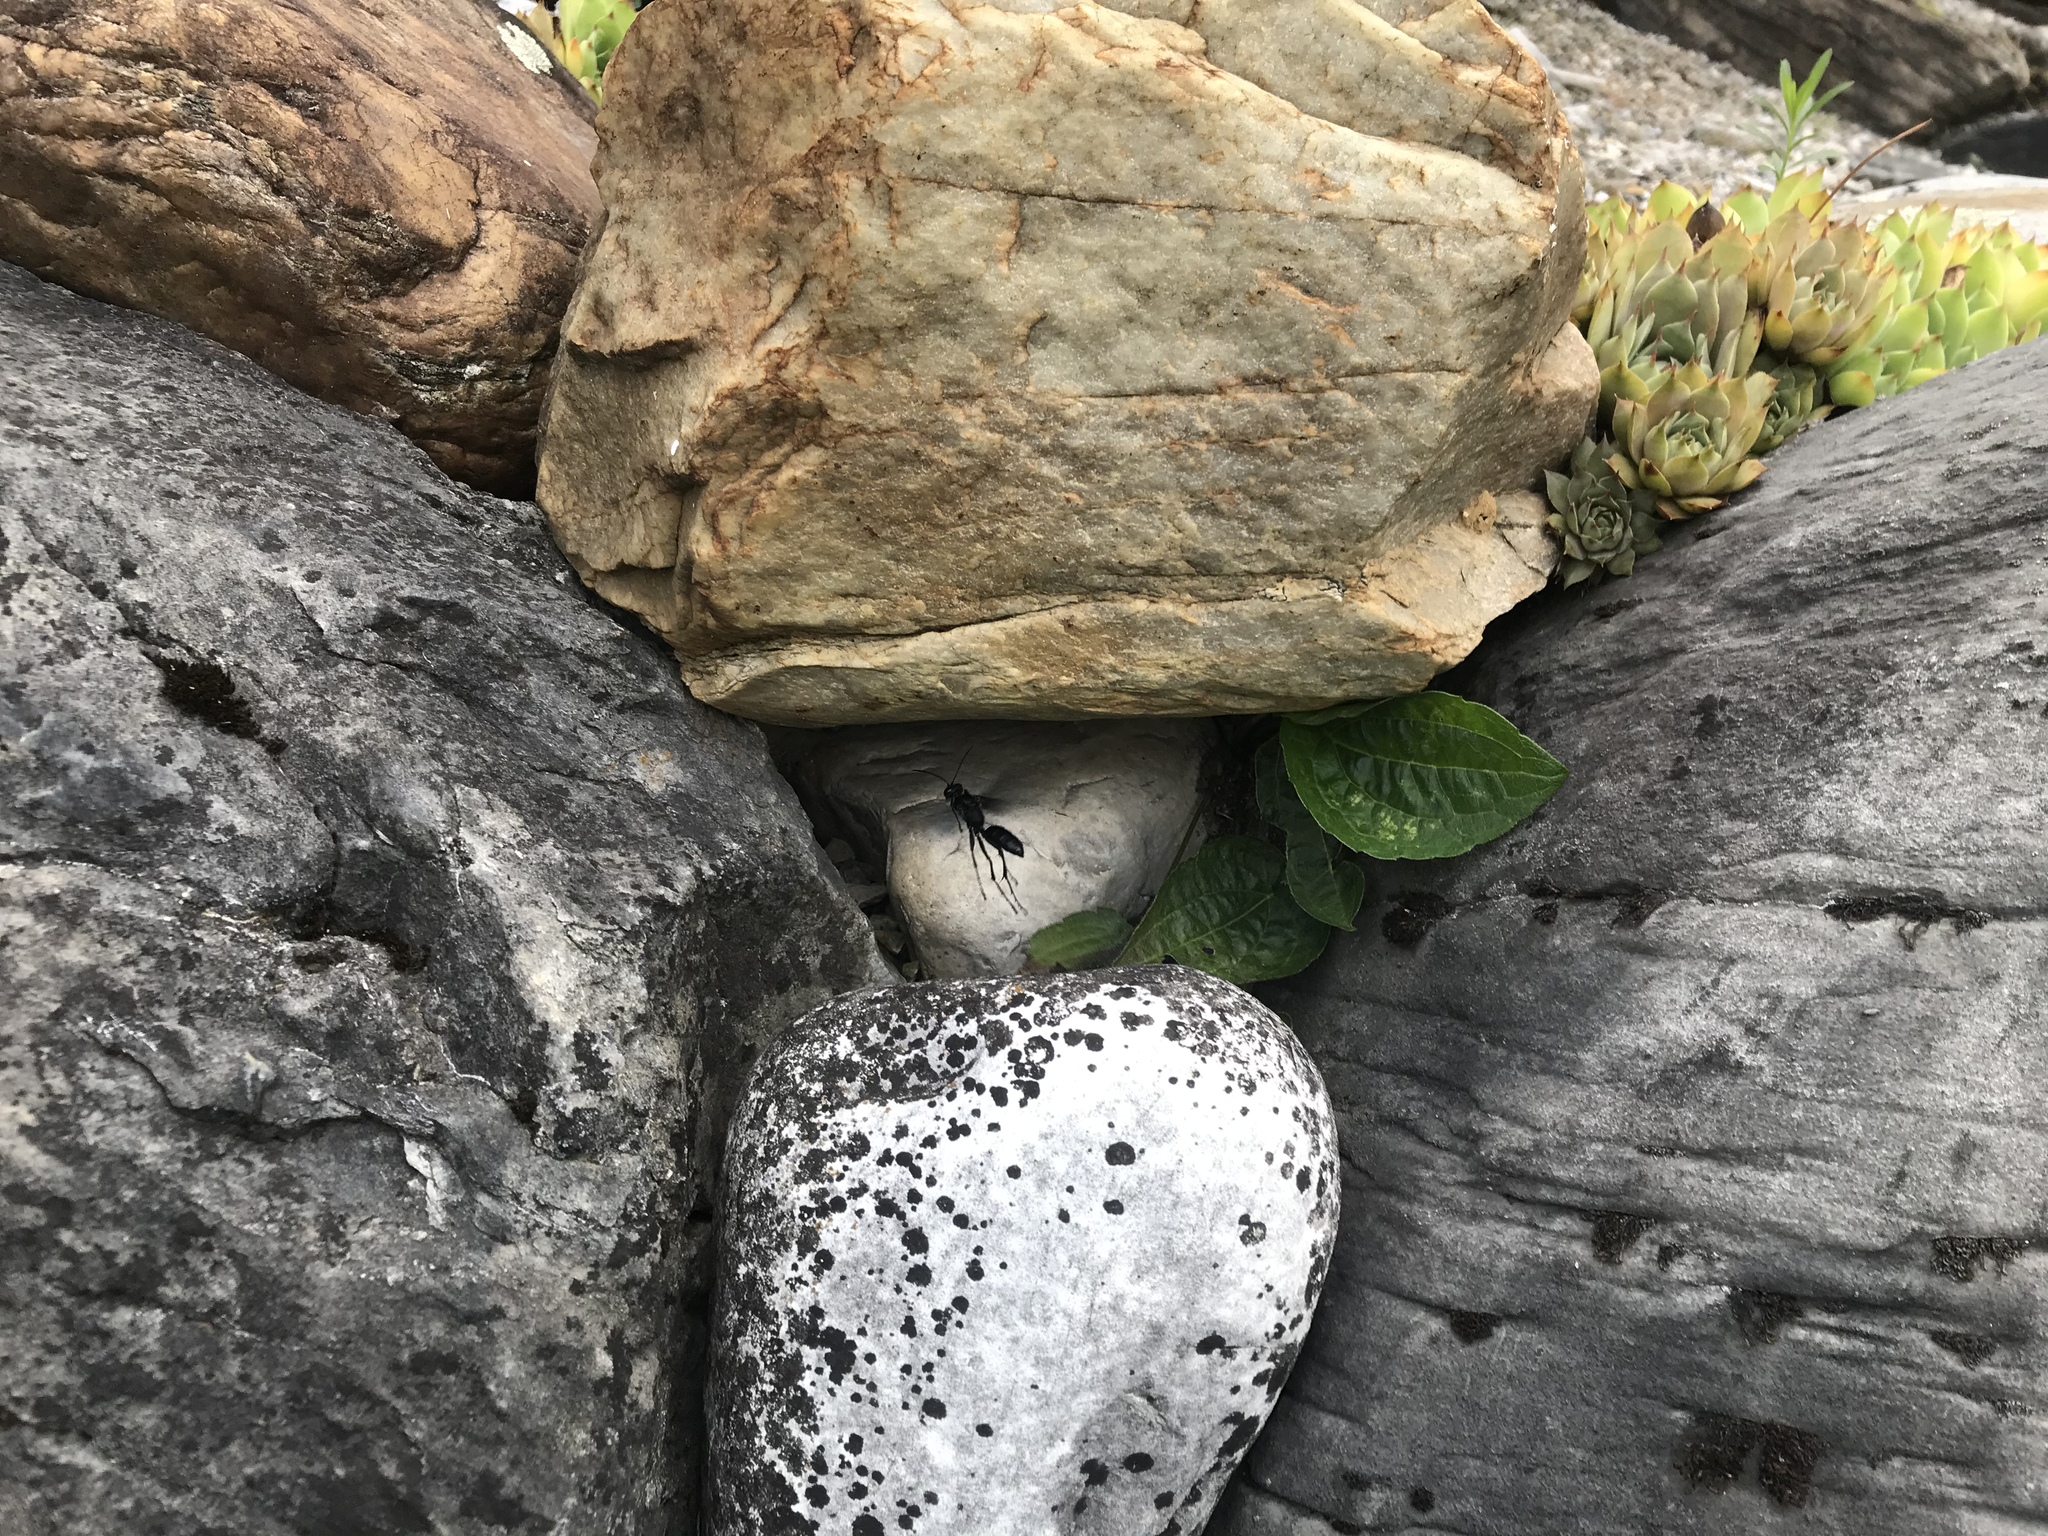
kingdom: Animalia
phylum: Arthropoda
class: Insecta
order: Hymenoptera
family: Sphecidae
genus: Sphex
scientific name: Sphex pensylvanicus
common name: Great black digger wasp
